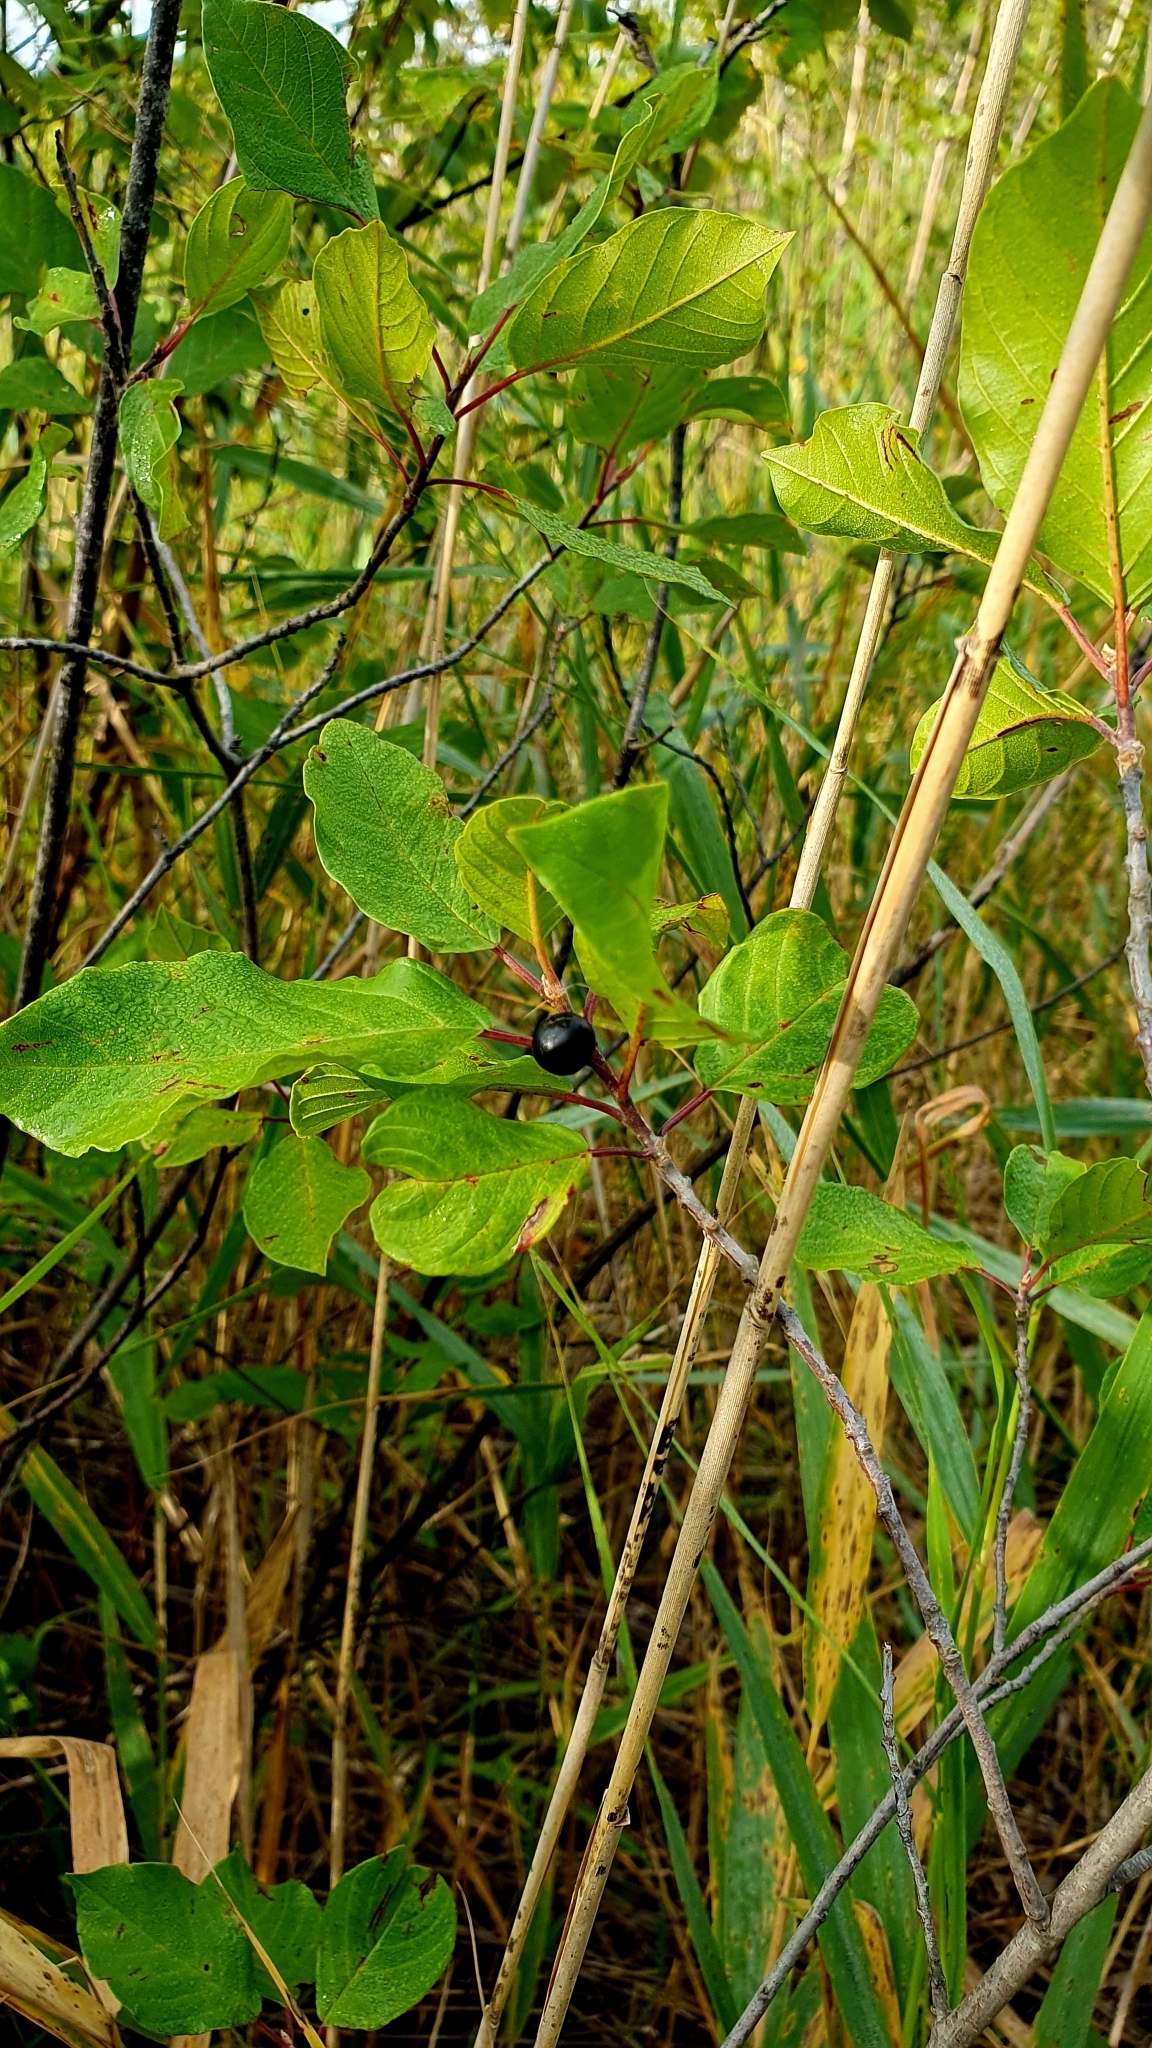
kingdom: Plantae
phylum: Tracheophyta
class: Magnoliopsida
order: Rosales
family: Rhamnaceae
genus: Frangula
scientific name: Frangula alnus
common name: Alder buckthorn
